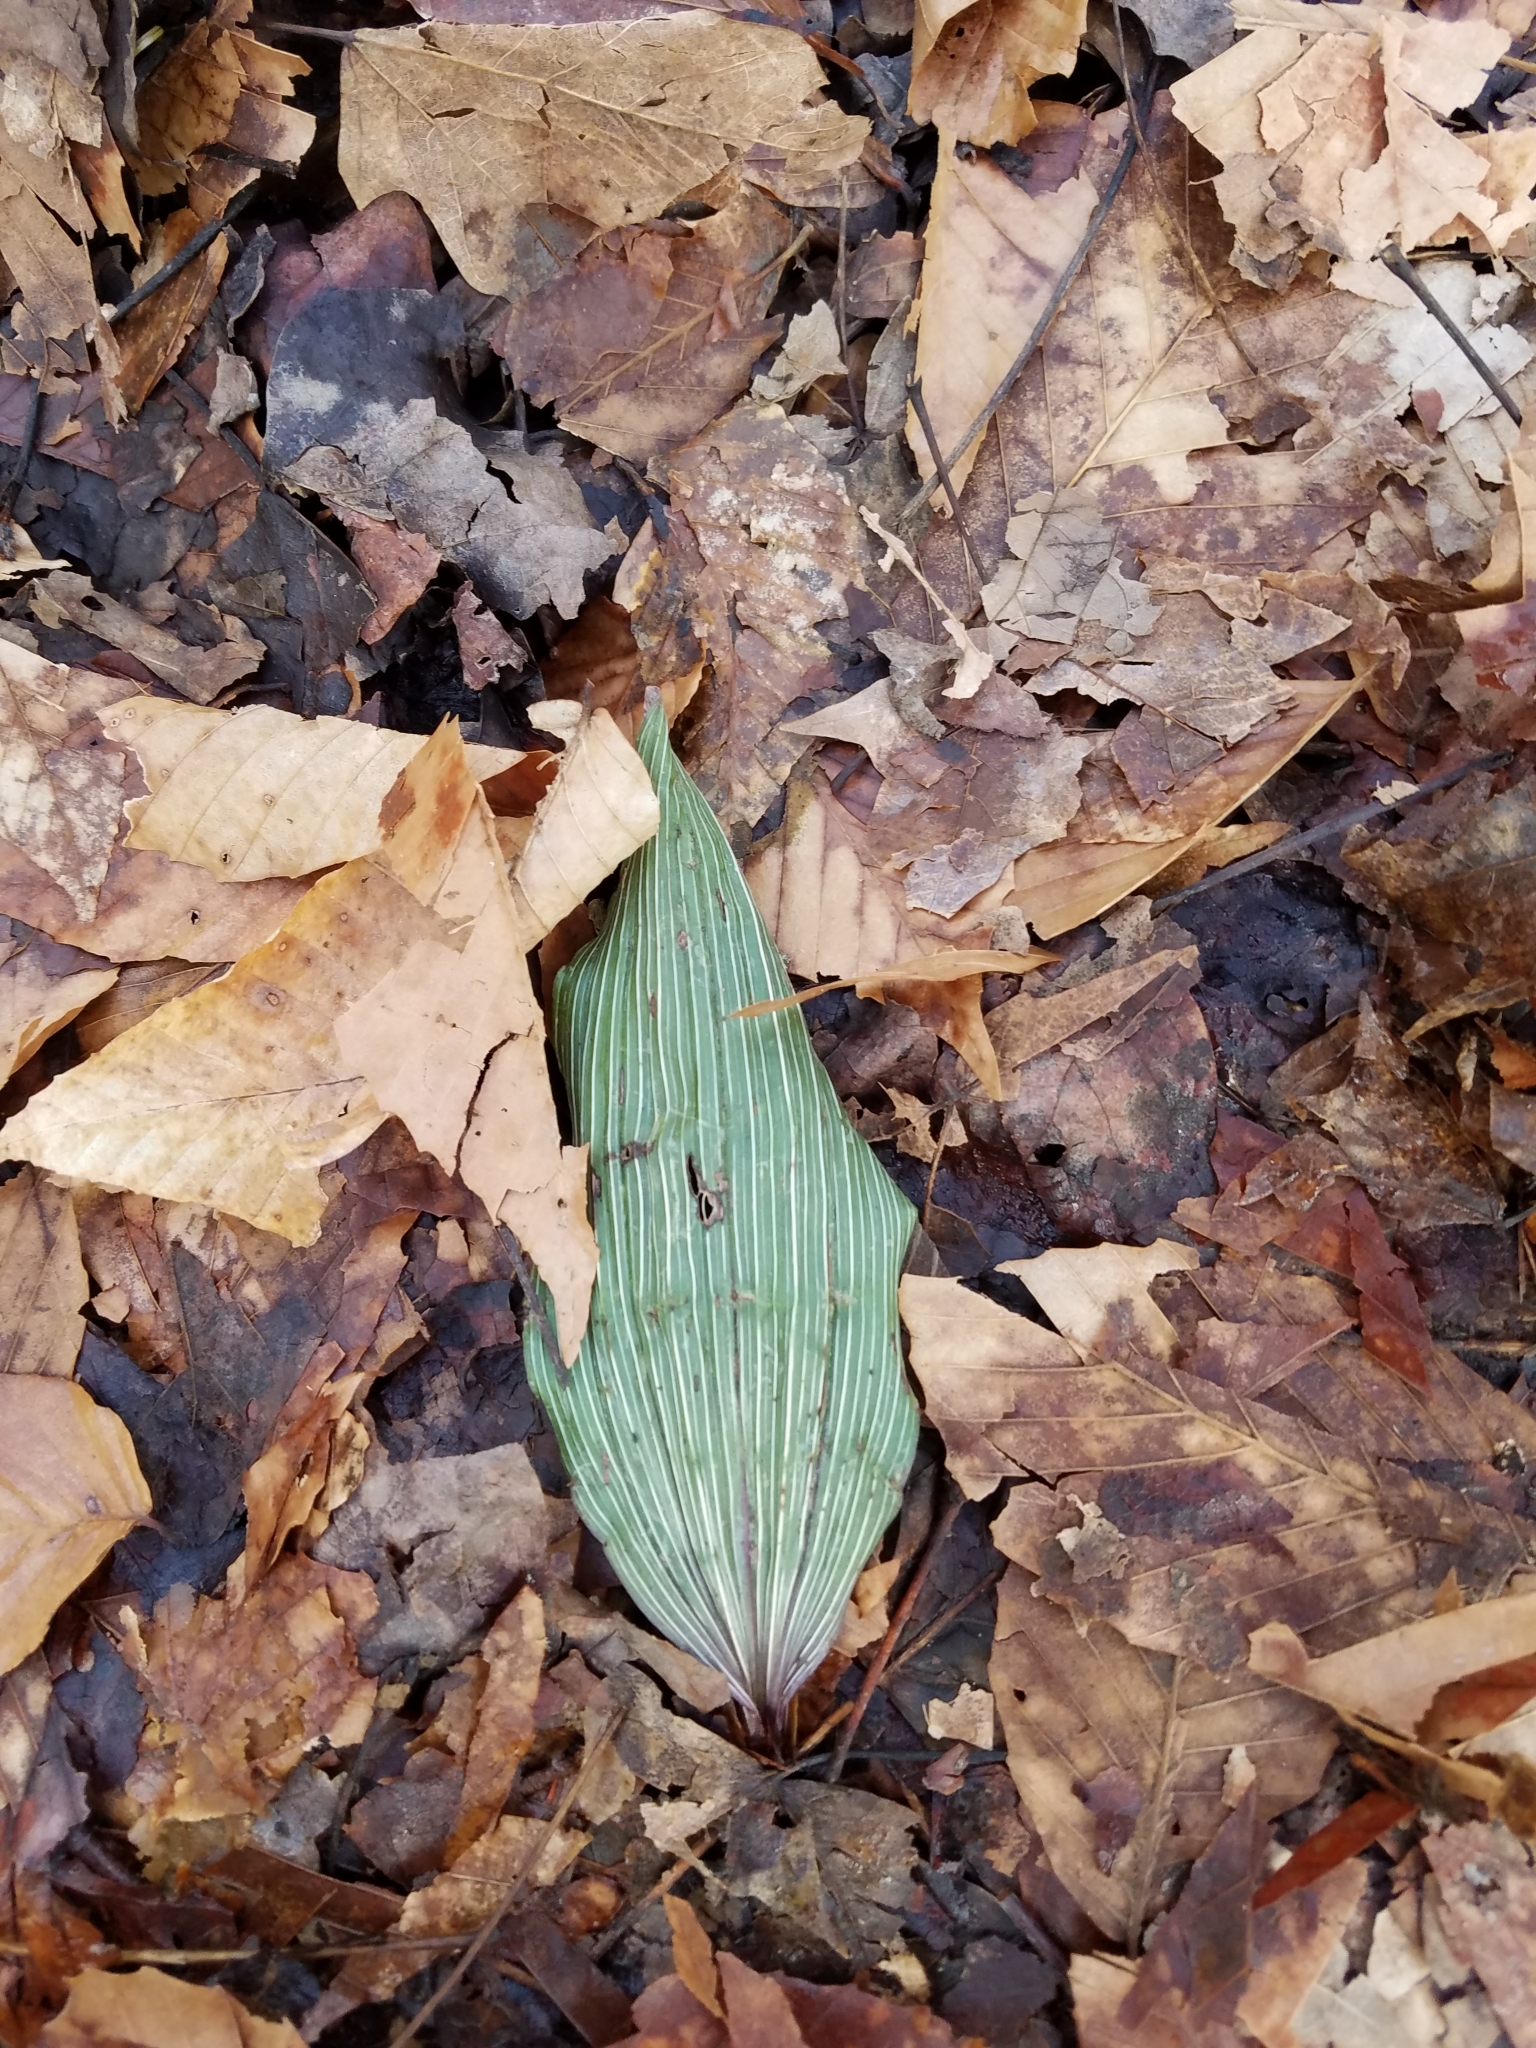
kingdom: Plantae
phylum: Tracheophyta
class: Liliopsida
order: Asparagales
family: Orchidaceae
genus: Aplectrum
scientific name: Aplectrum hyemale
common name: Adam-and-eve
